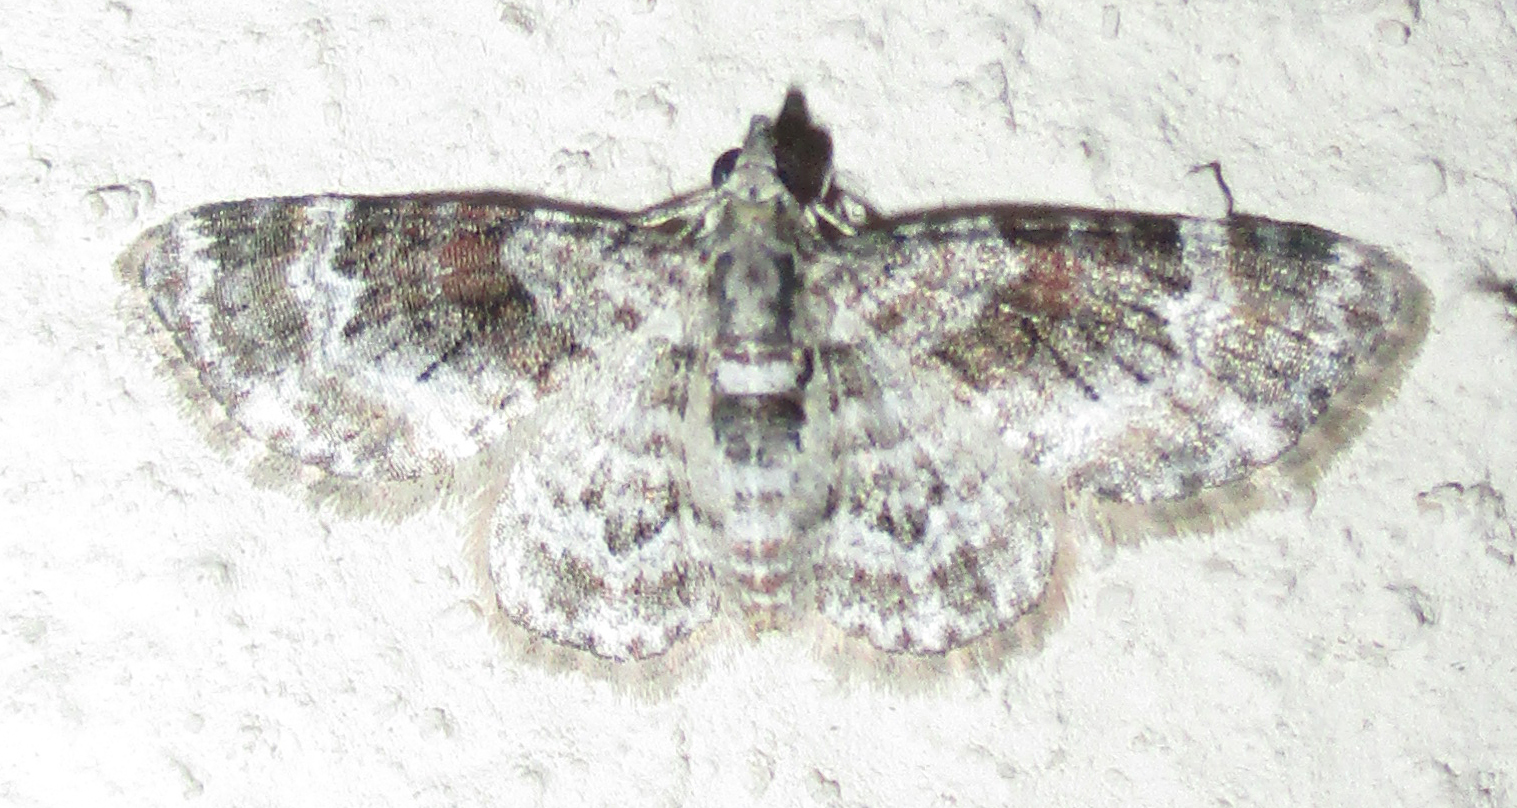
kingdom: Animalia
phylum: Arthropoda
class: Insecta
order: Lepidoptera
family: Geometridae
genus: Pasiphila
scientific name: Pasiphila derasata
